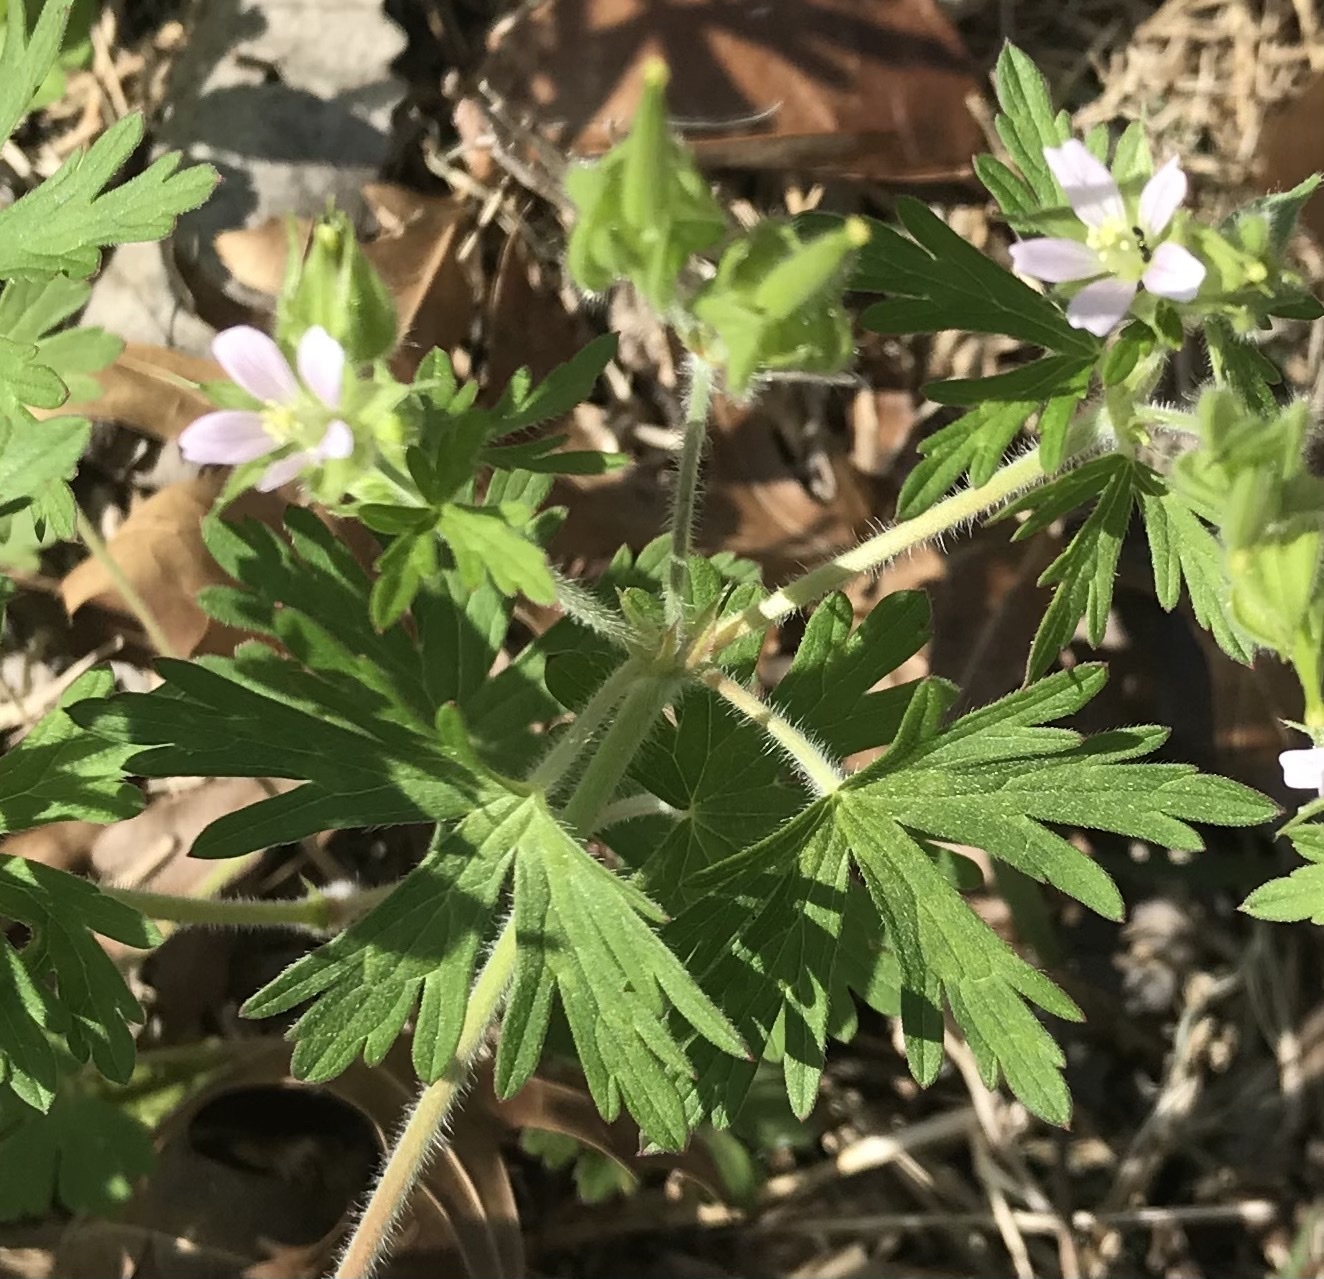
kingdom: Plantae
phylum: Tracheophyta
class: Magnoliopsida
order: Geraniales
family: Geraniaceae
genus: Geranium
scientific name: Geranium carolinianum
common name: Carolina crane's-bill
